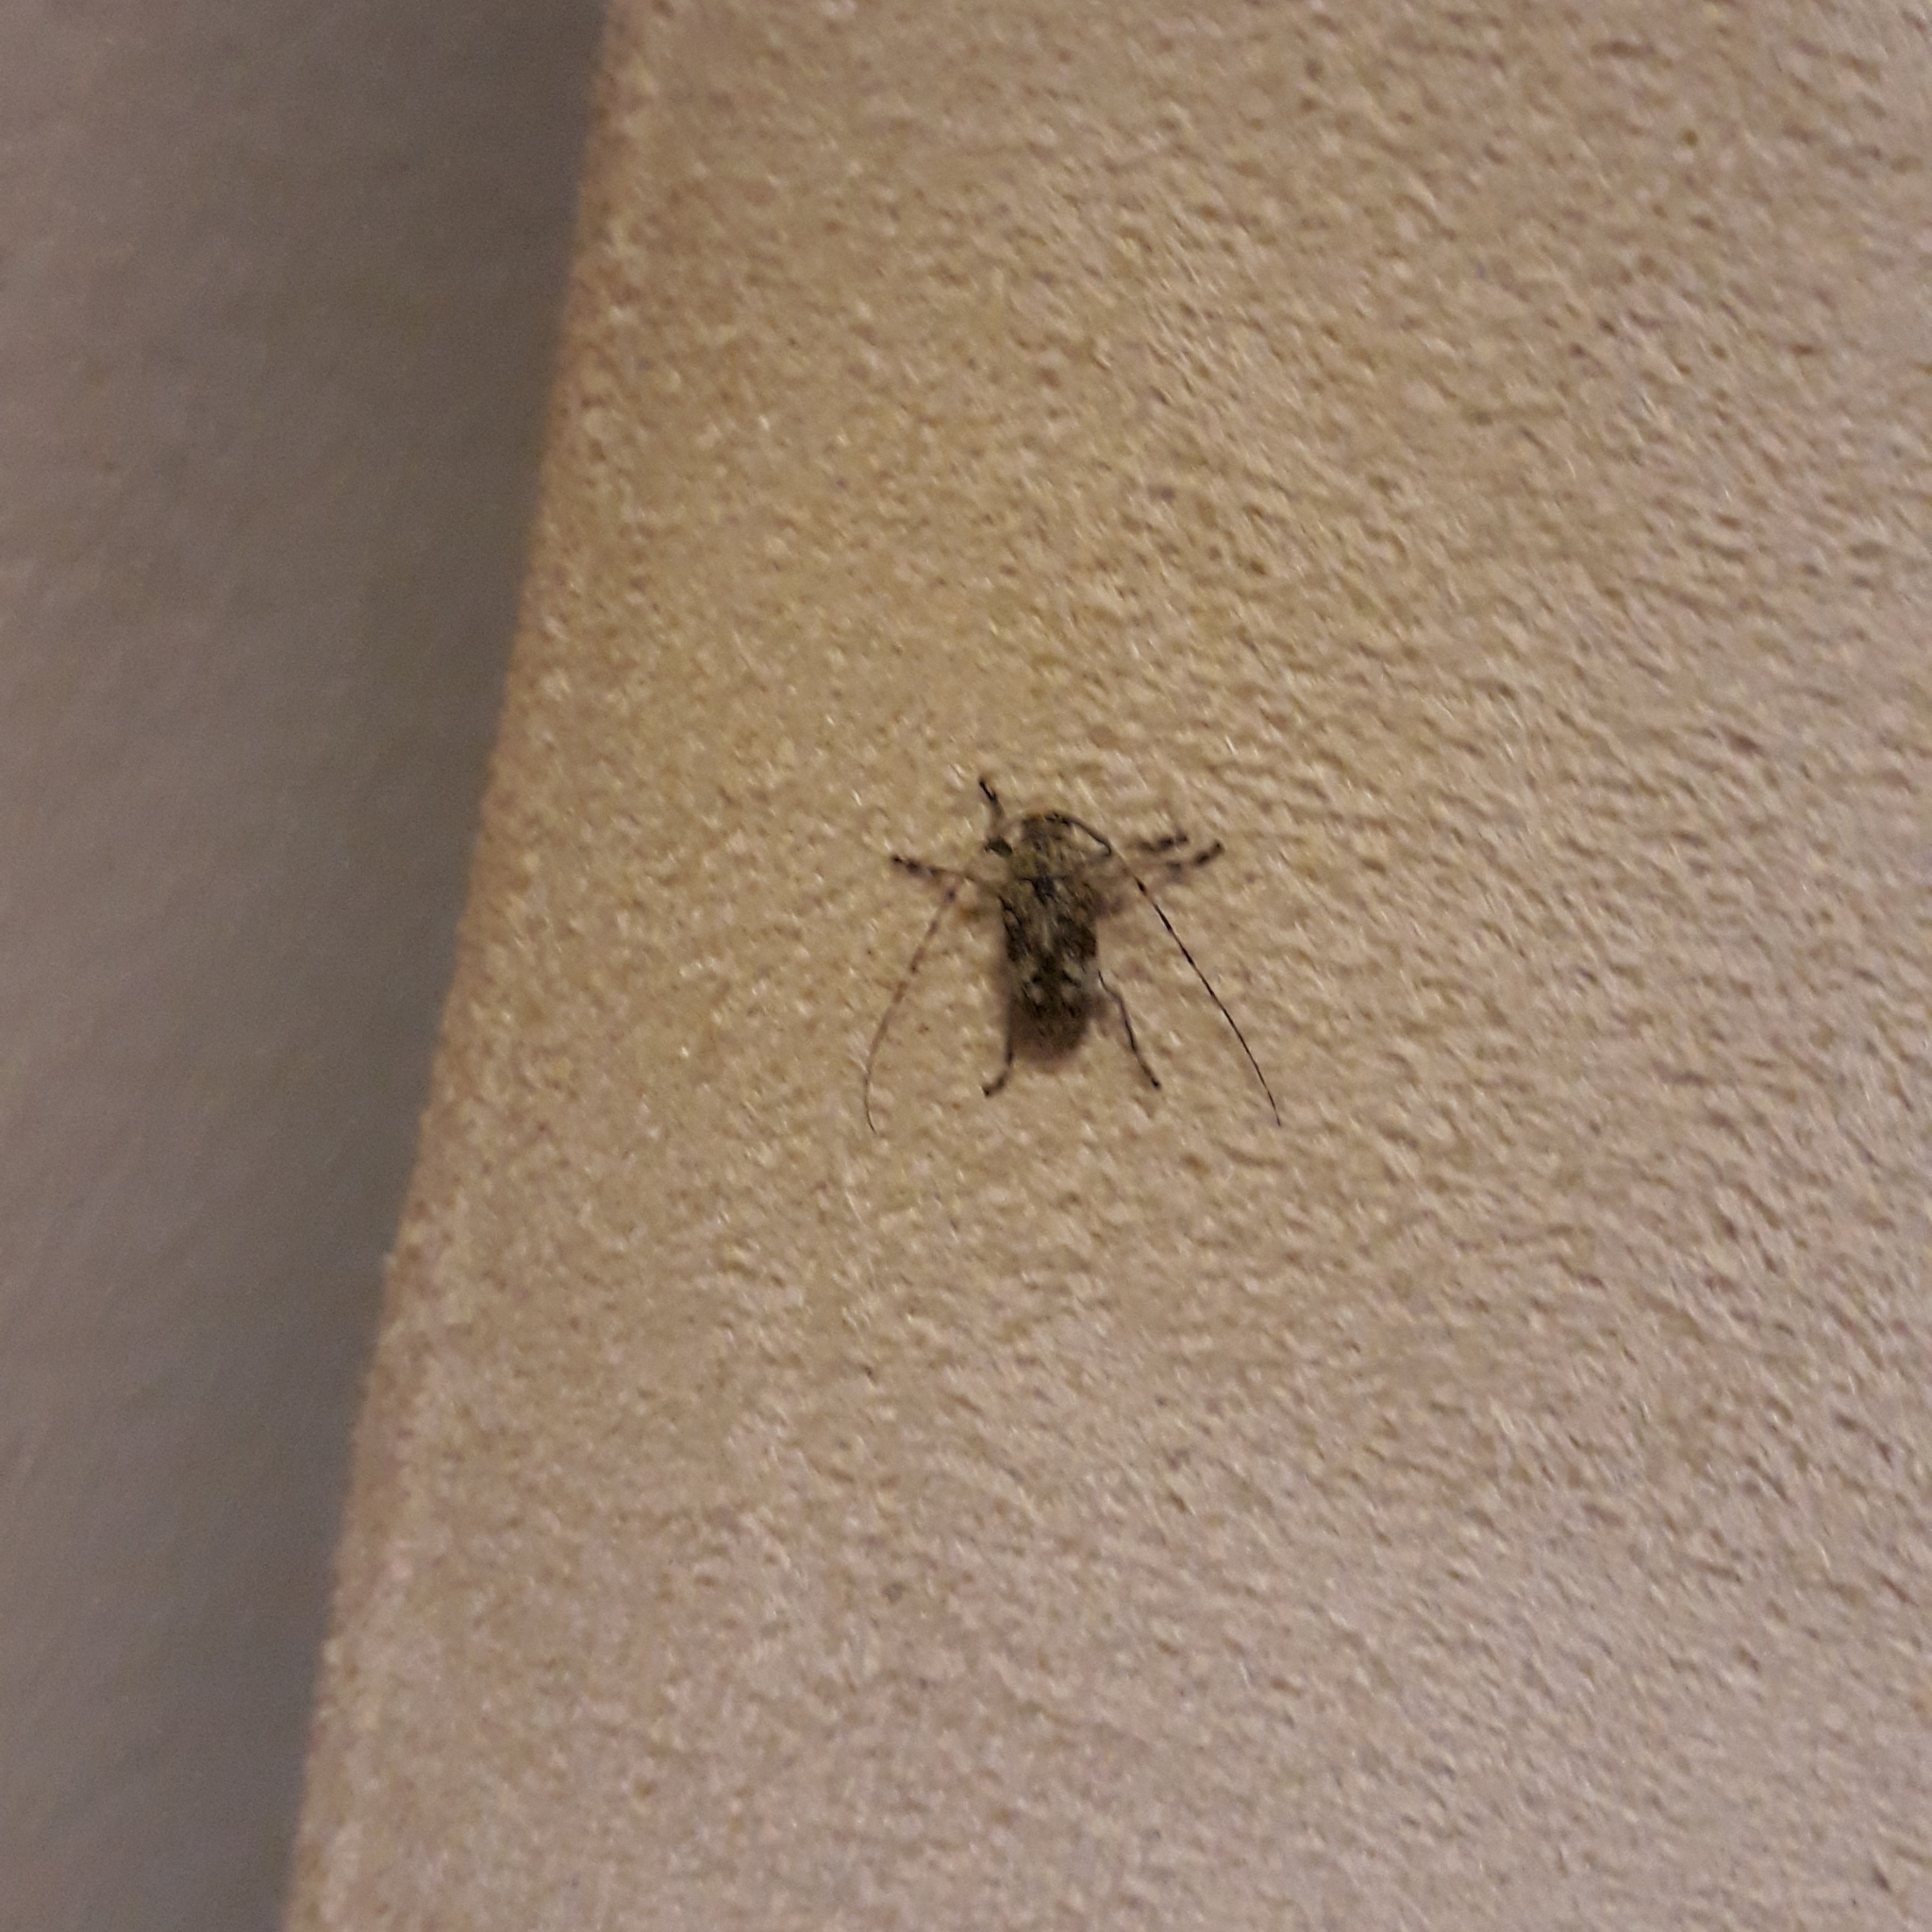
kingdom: Animalia
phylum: Arthropoda
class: Insecta
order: Coleoptera
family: Cerambycidae
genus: Atrypanius
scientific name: Atrypanius conspersus
